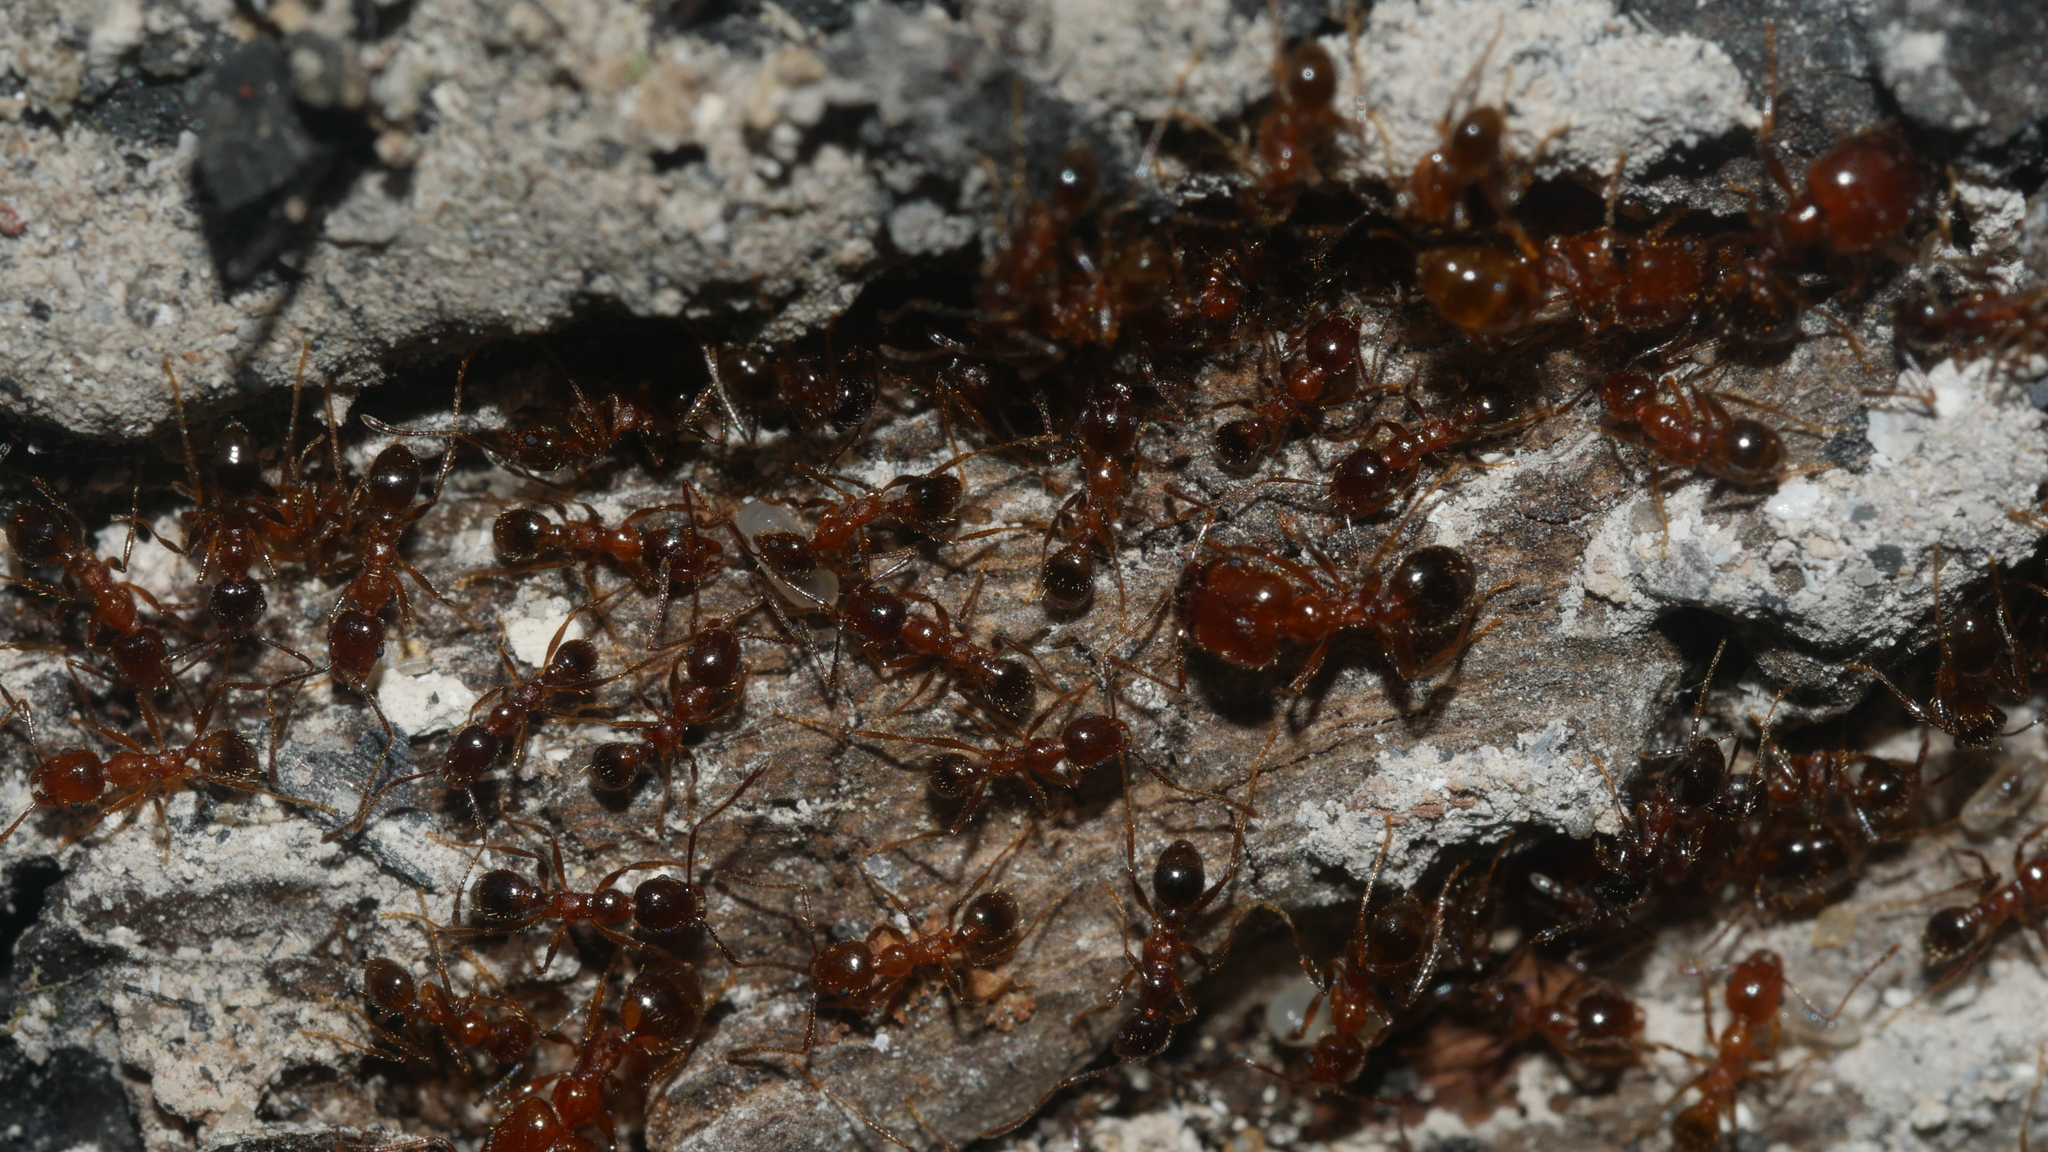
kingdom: Animalia
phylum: Arthropoda
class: Insecta
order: Hymenoptera
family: Formicidae
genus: Pheidole
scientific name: Pheidole dentata
